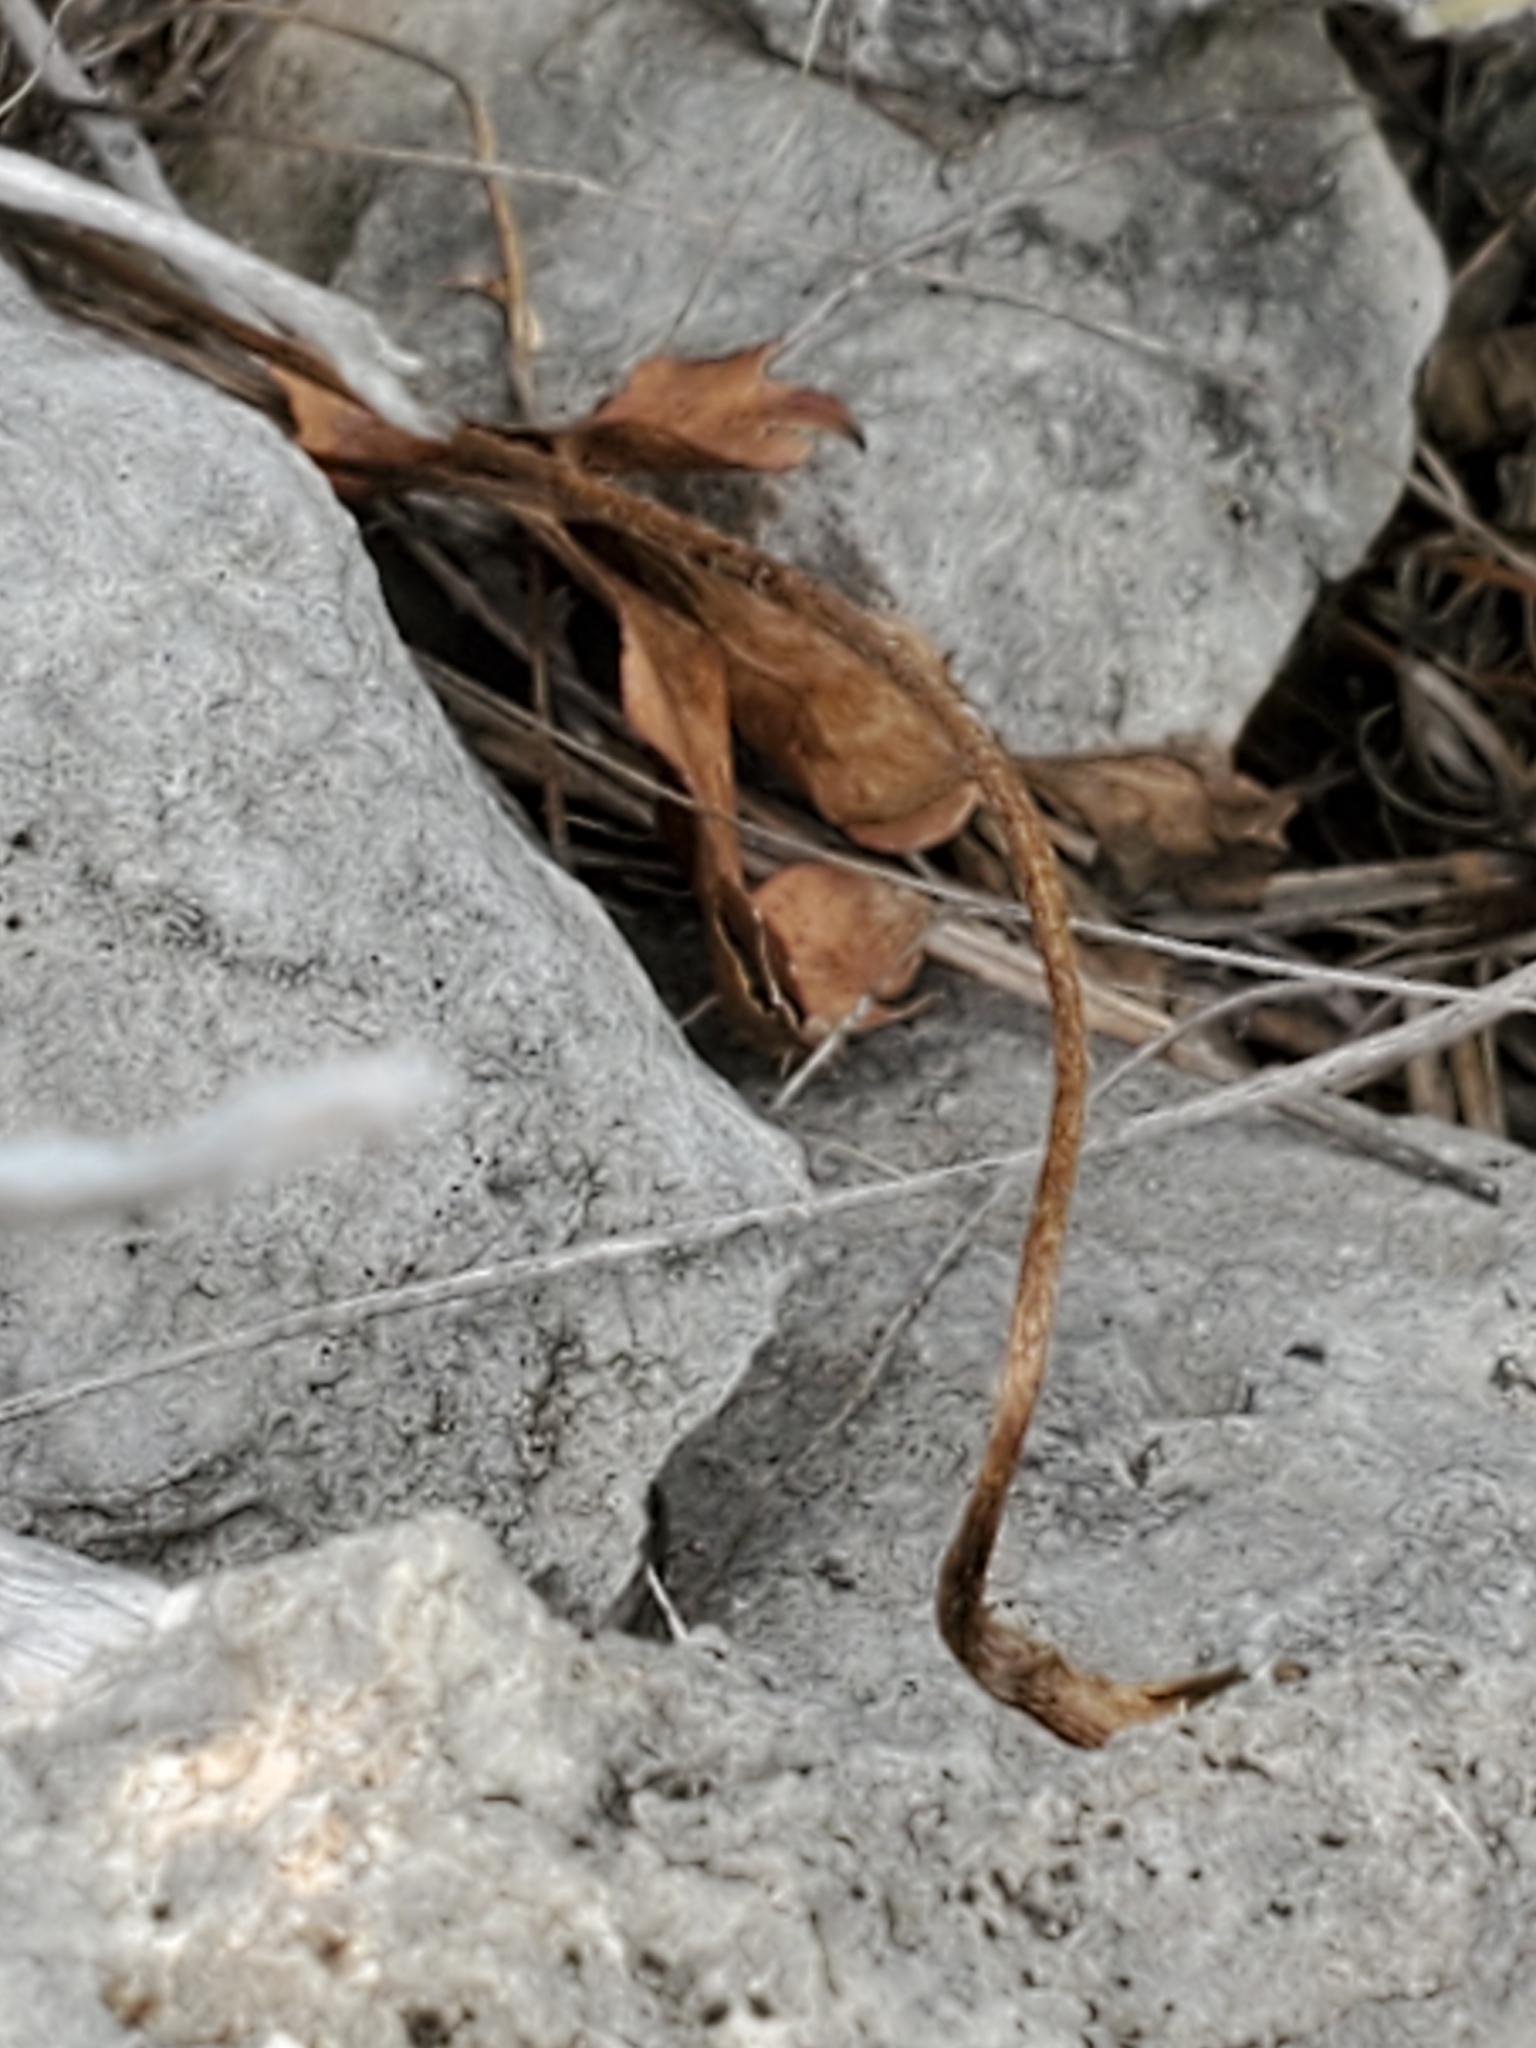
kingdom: Plantae
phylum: Tracheophyta
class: Magnoliopsida
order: Ranunculales
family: Ranunculaceae
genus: Anemone
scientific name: Anemone edwardsiana
